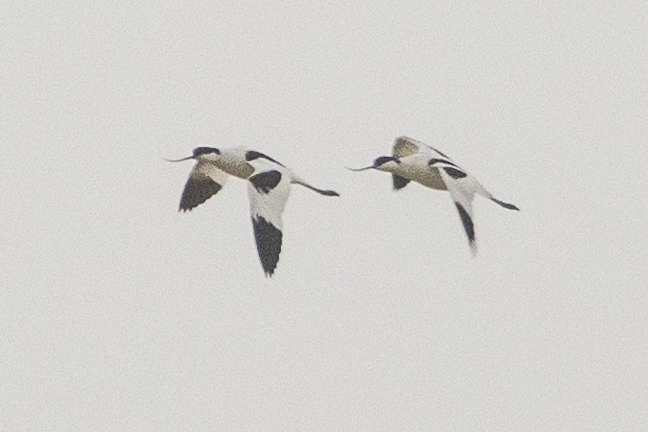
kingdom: Animalia
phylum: Chordata
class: Aves
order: Charadriiformes
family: Recurvirostridae
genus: Recurvirostra
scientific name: Recurvirostra avosetta
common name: Pied avocet
